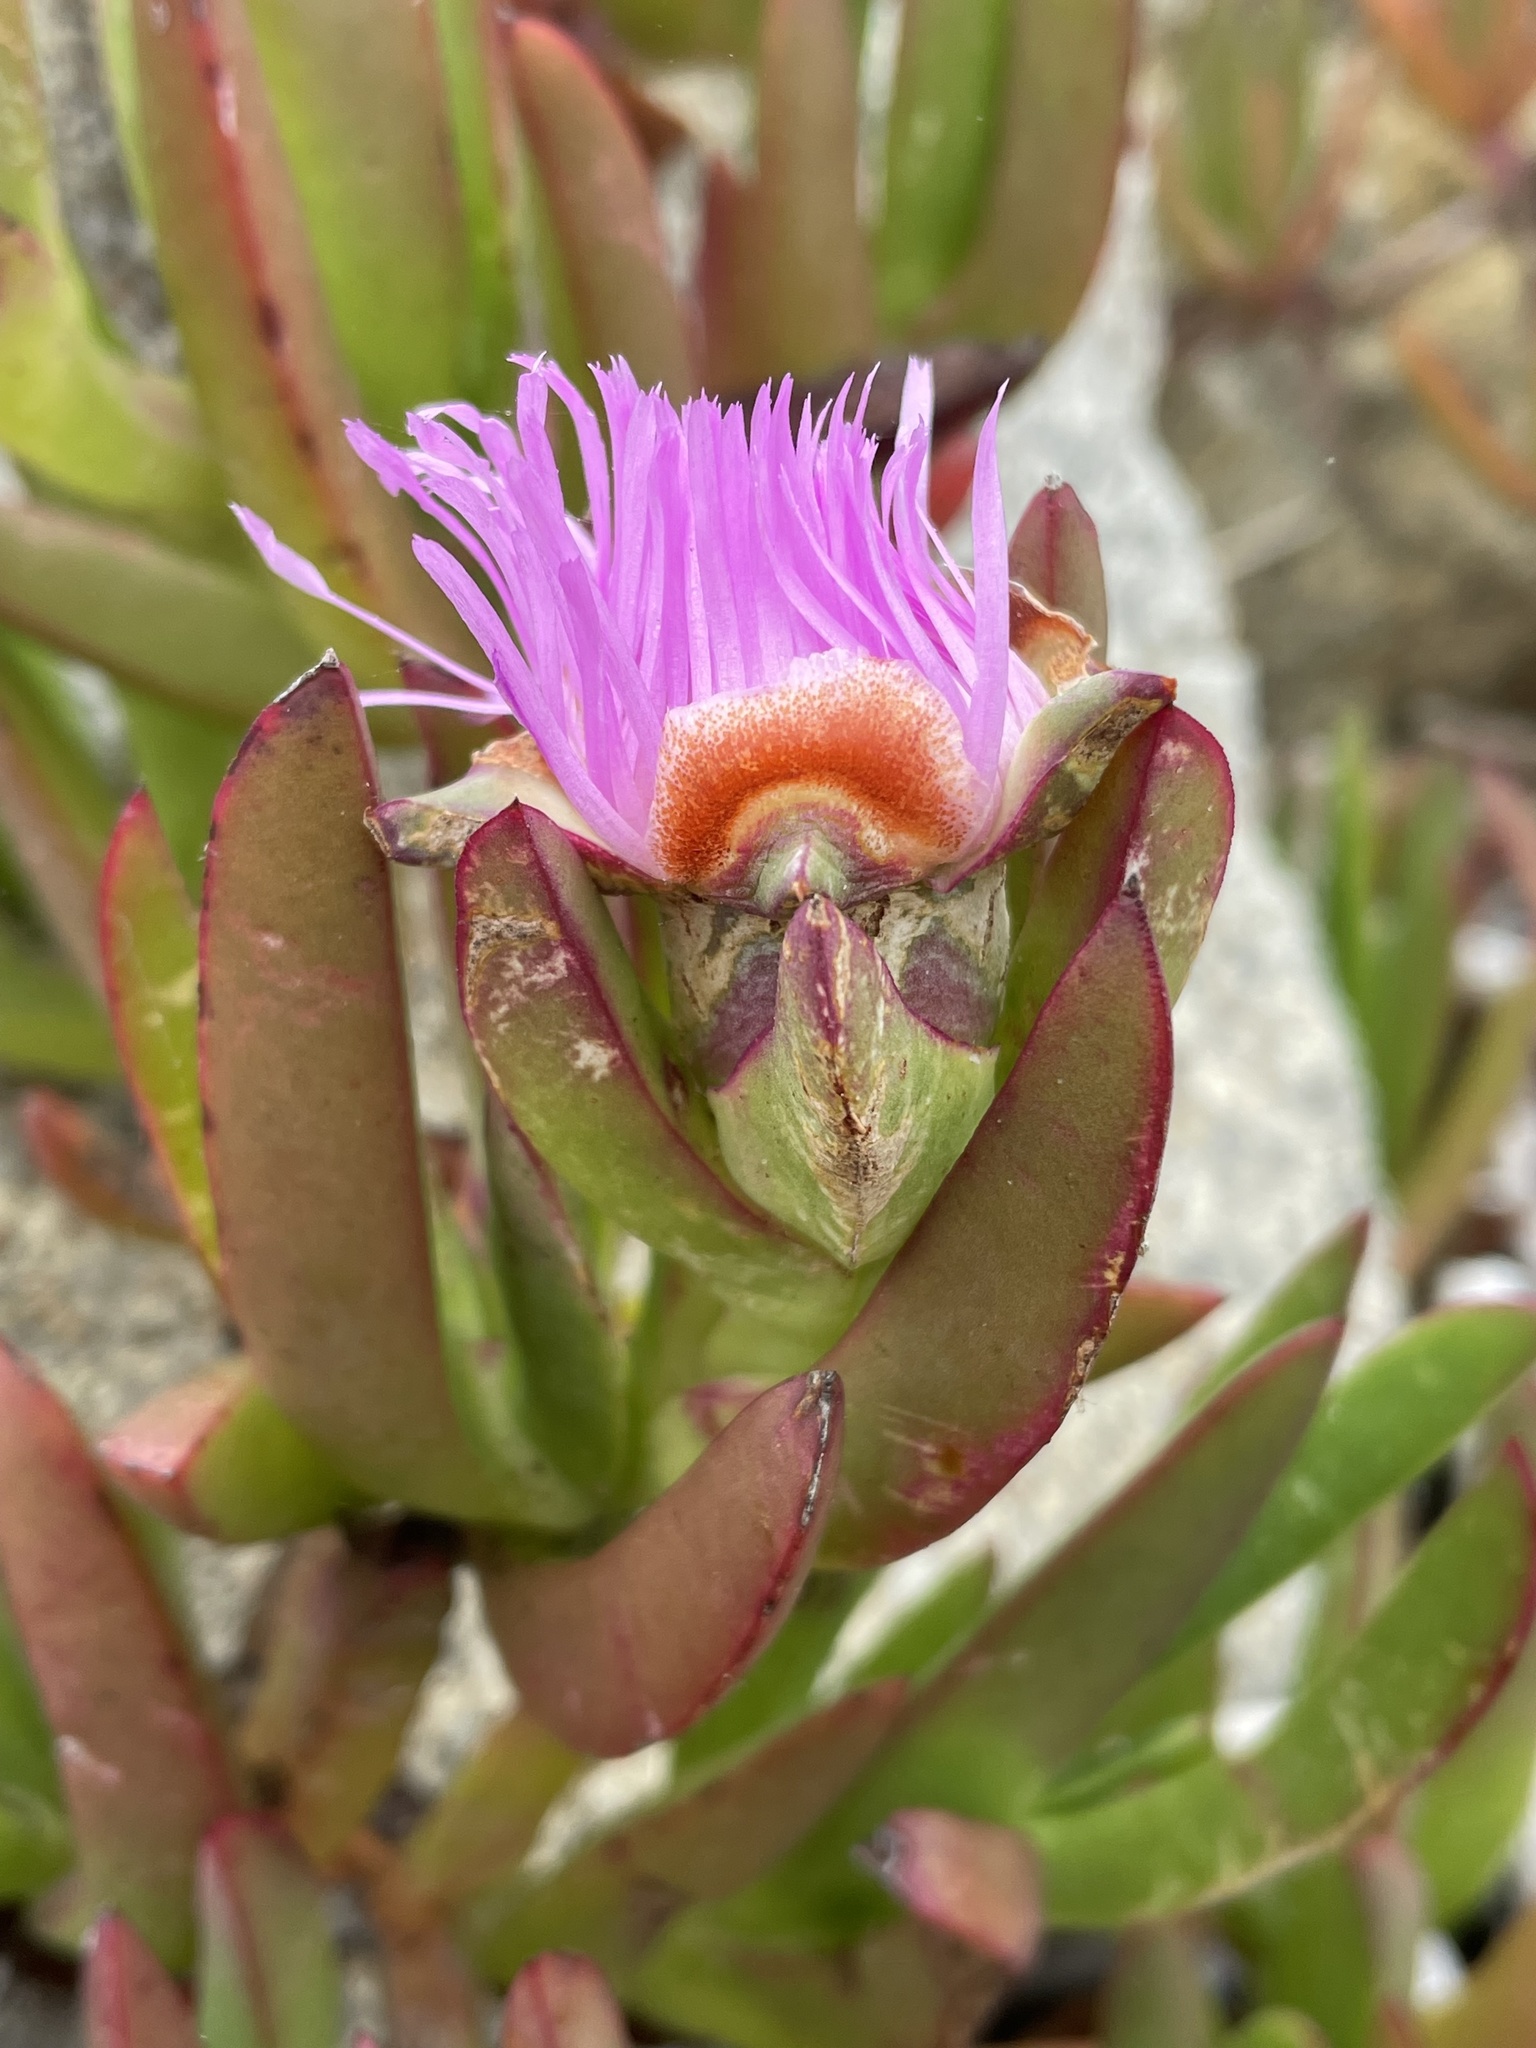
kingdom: Plantae
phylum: Tracheophyta
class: Magnoliopsida
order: Caryophyllales
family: Aizoaceae
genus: Carpobrotus
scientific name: Carpobrotus chilensis
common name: Sea fig
